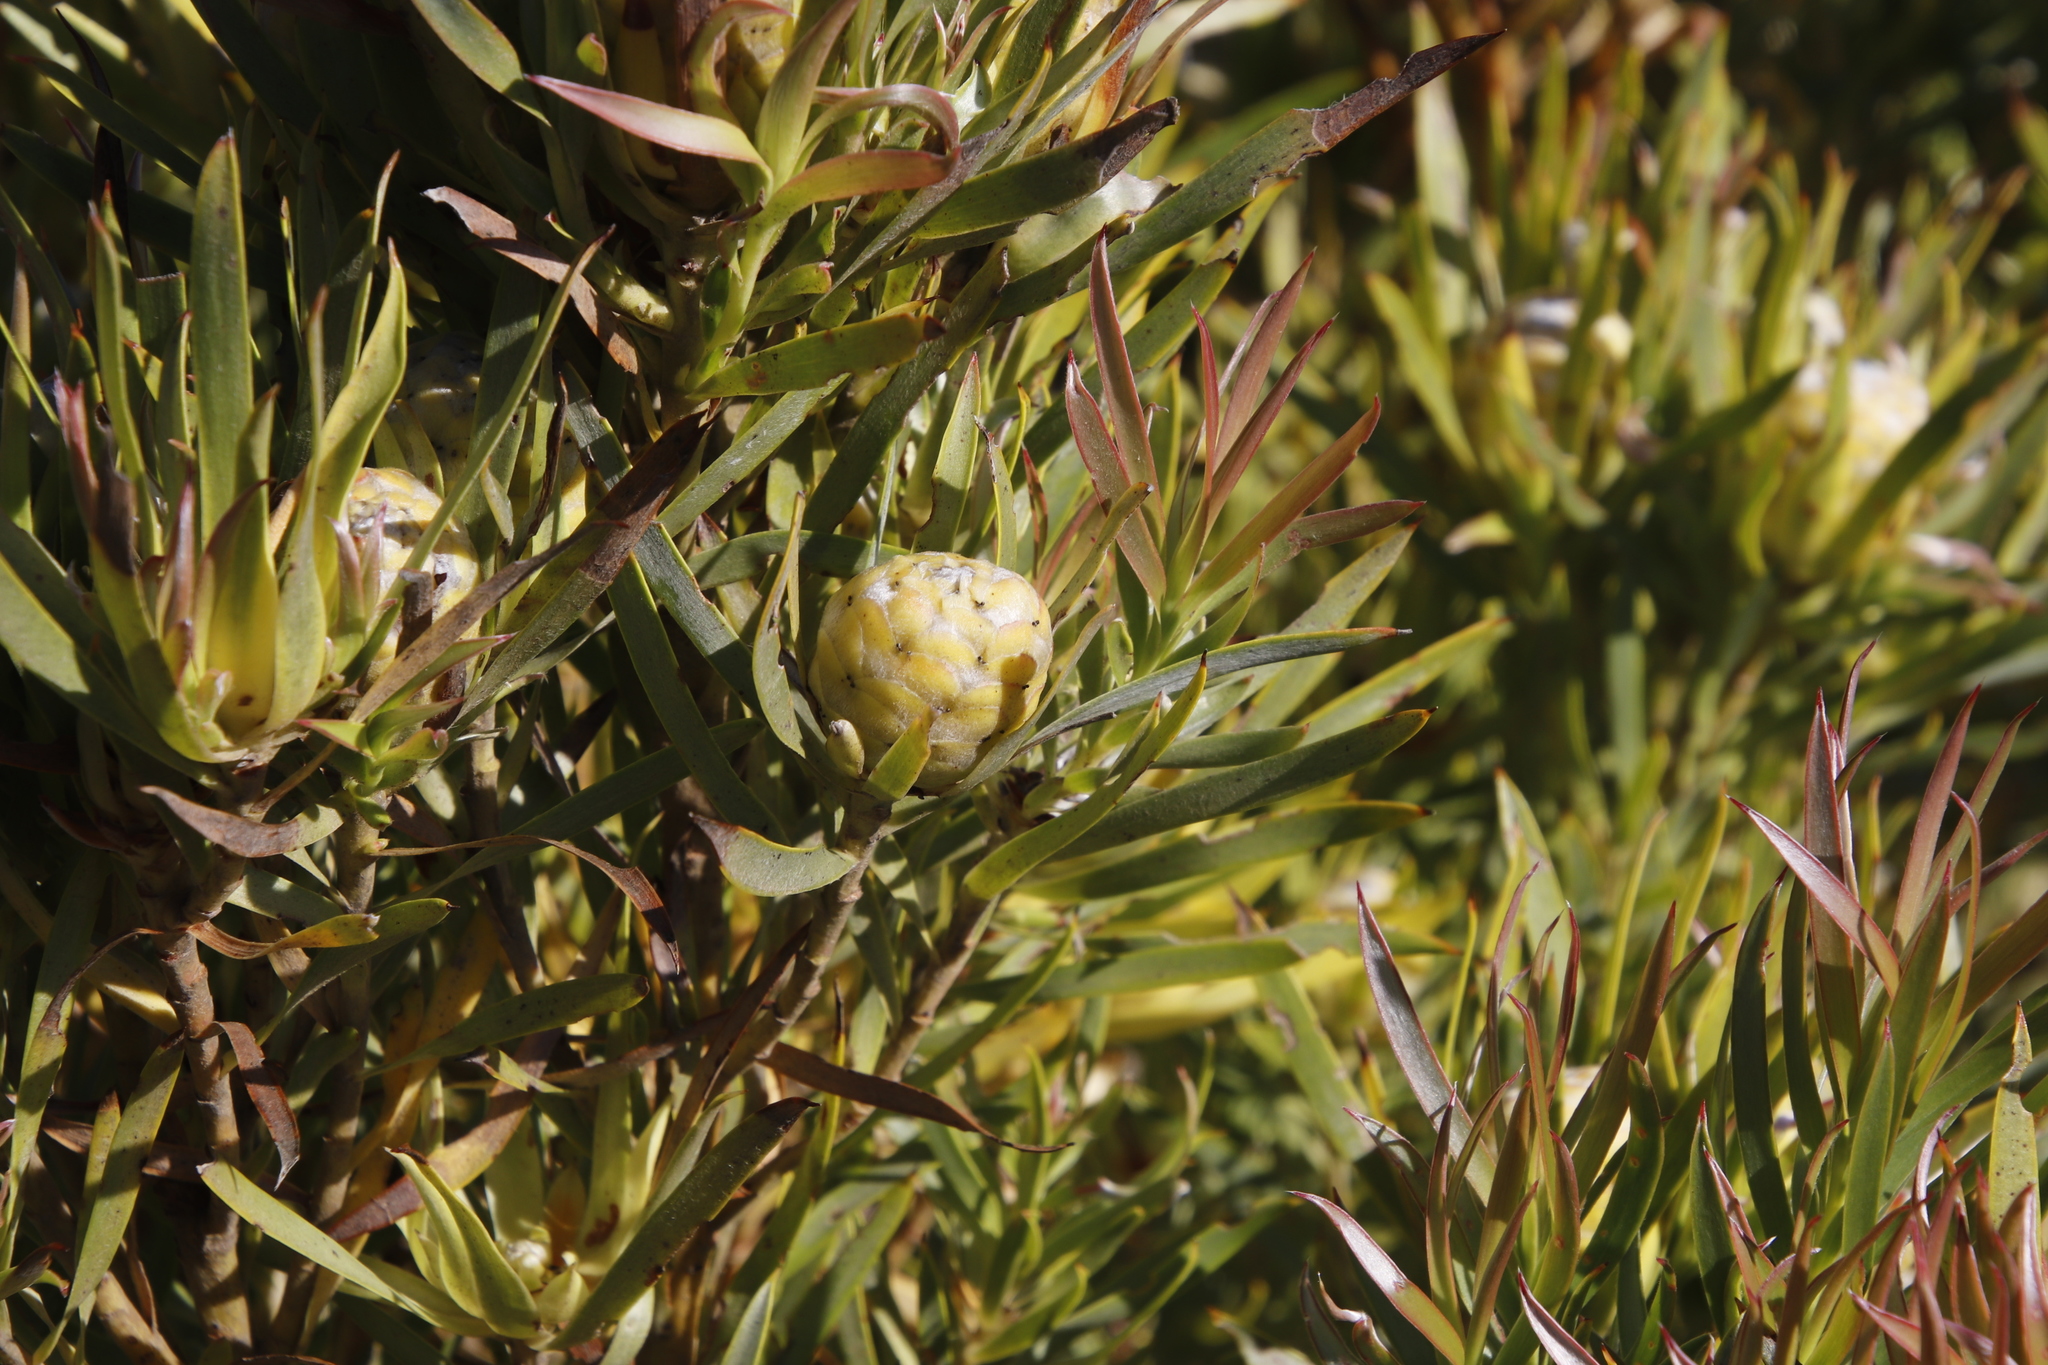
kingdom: Plantae
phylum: Tracheophyta
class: Magnoliopsida
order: Proteales
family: Proteaceae
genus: Leucadendron
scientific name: Leucadendron xanthoconus
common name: Sickle-leaf conebush
